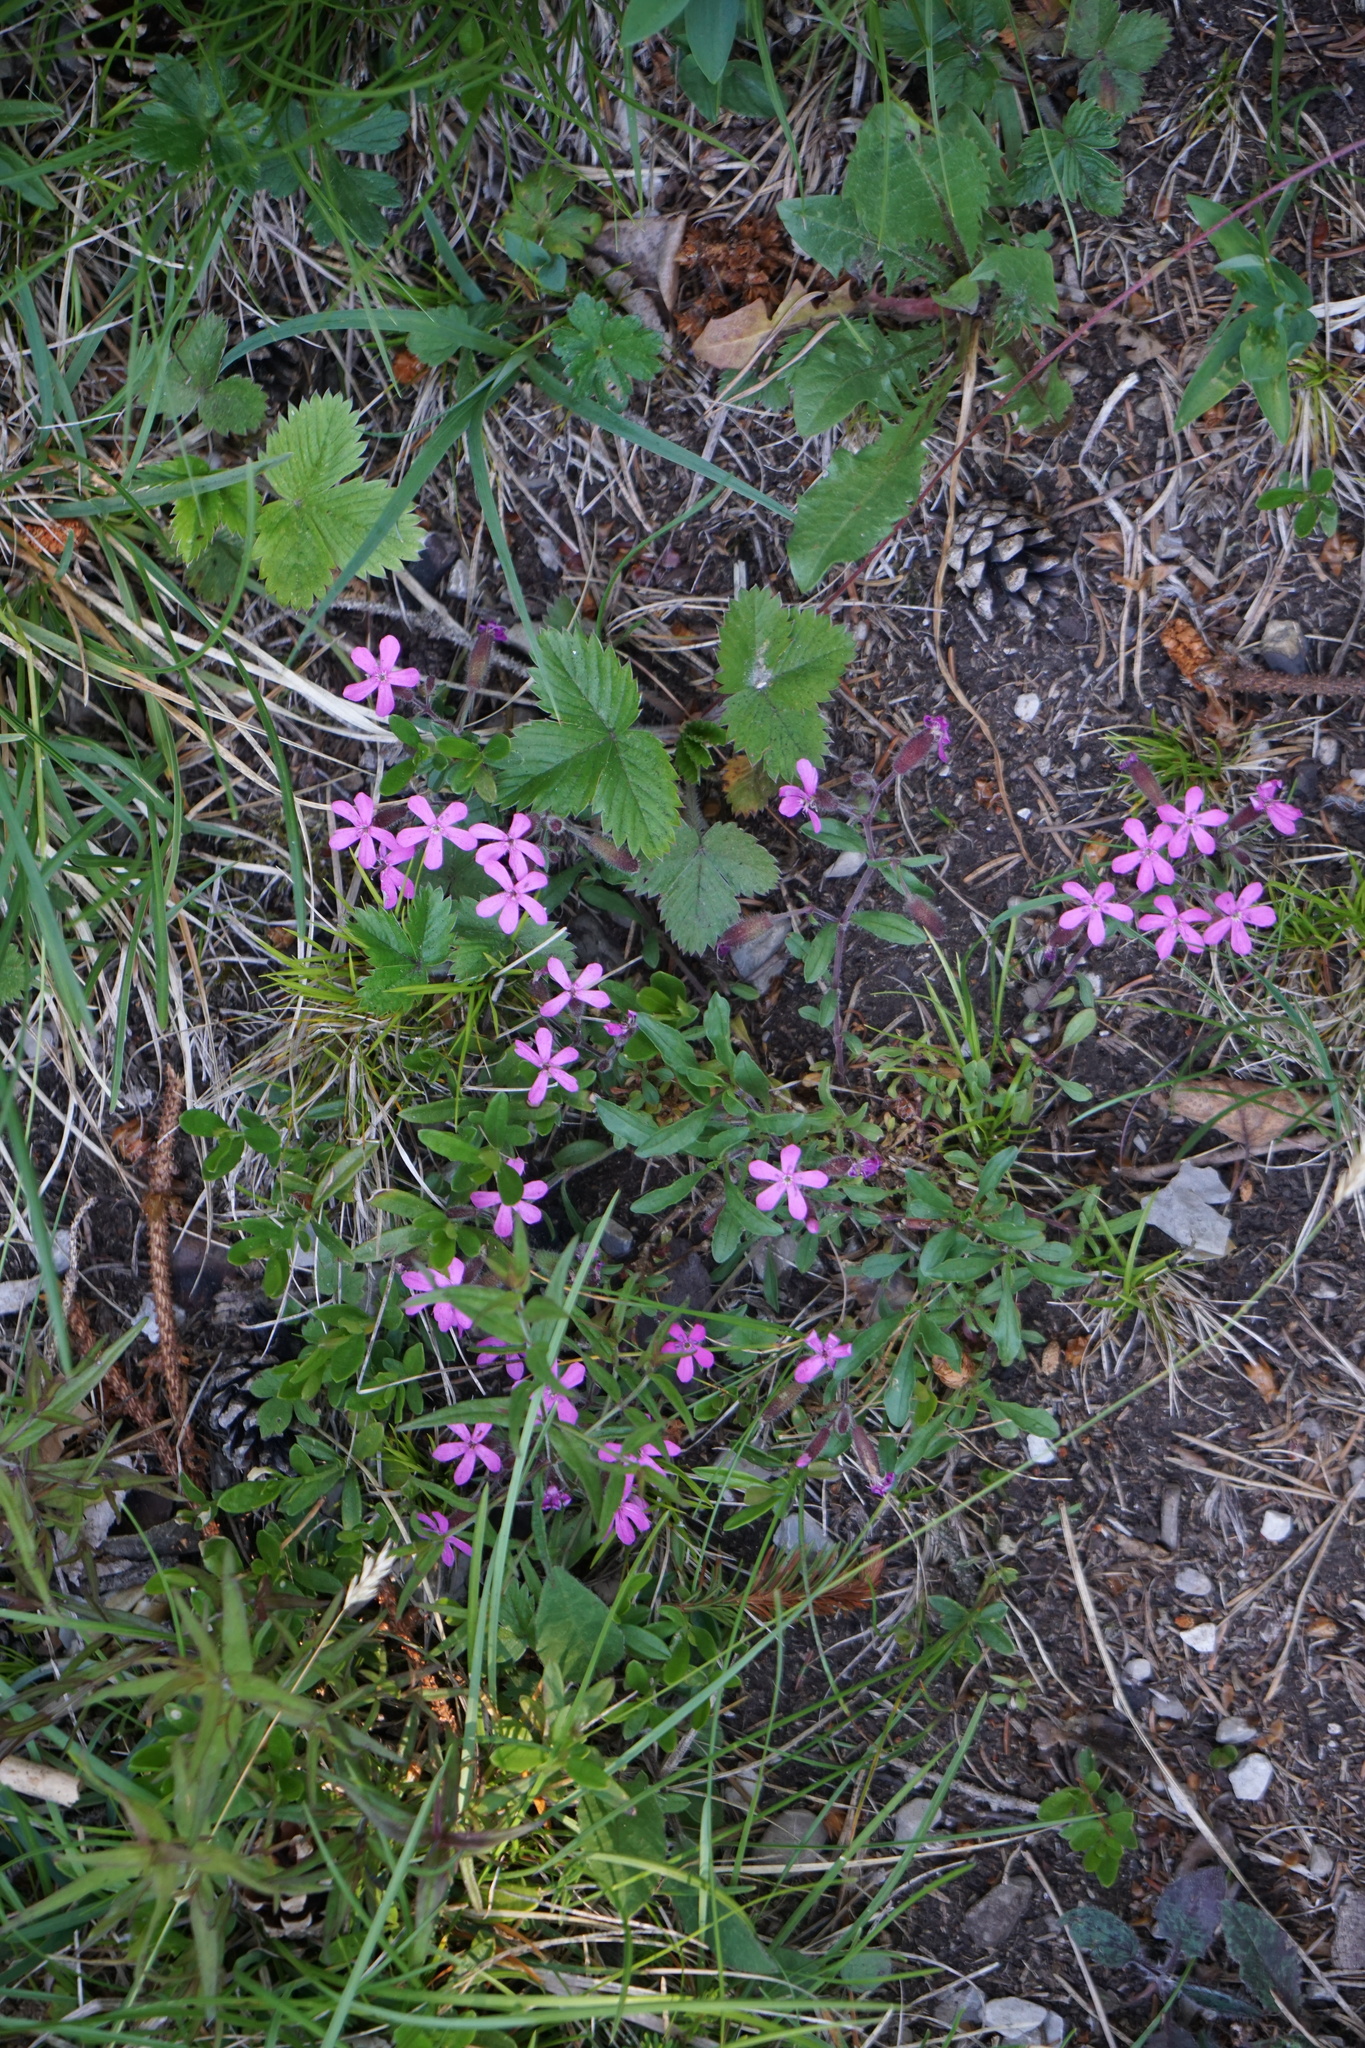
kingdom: Plantae
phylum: Tracheophyta
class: Magnoliopsida
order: Caryophyllales
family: Caryophyllaceae
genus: Saponaria
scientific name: Saponaria ocymoides
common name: Rock soapwort
